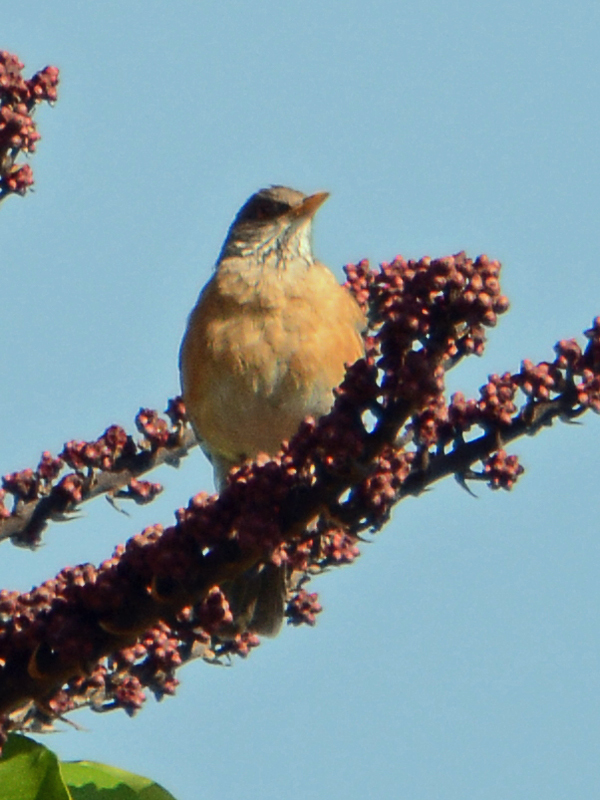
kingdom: Animalia
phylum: Chordata
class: Aves
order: Passeriformes
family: Turdidae
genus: Turdus
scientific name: Turdus rufopalliatus
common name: Rufous-backed robin
